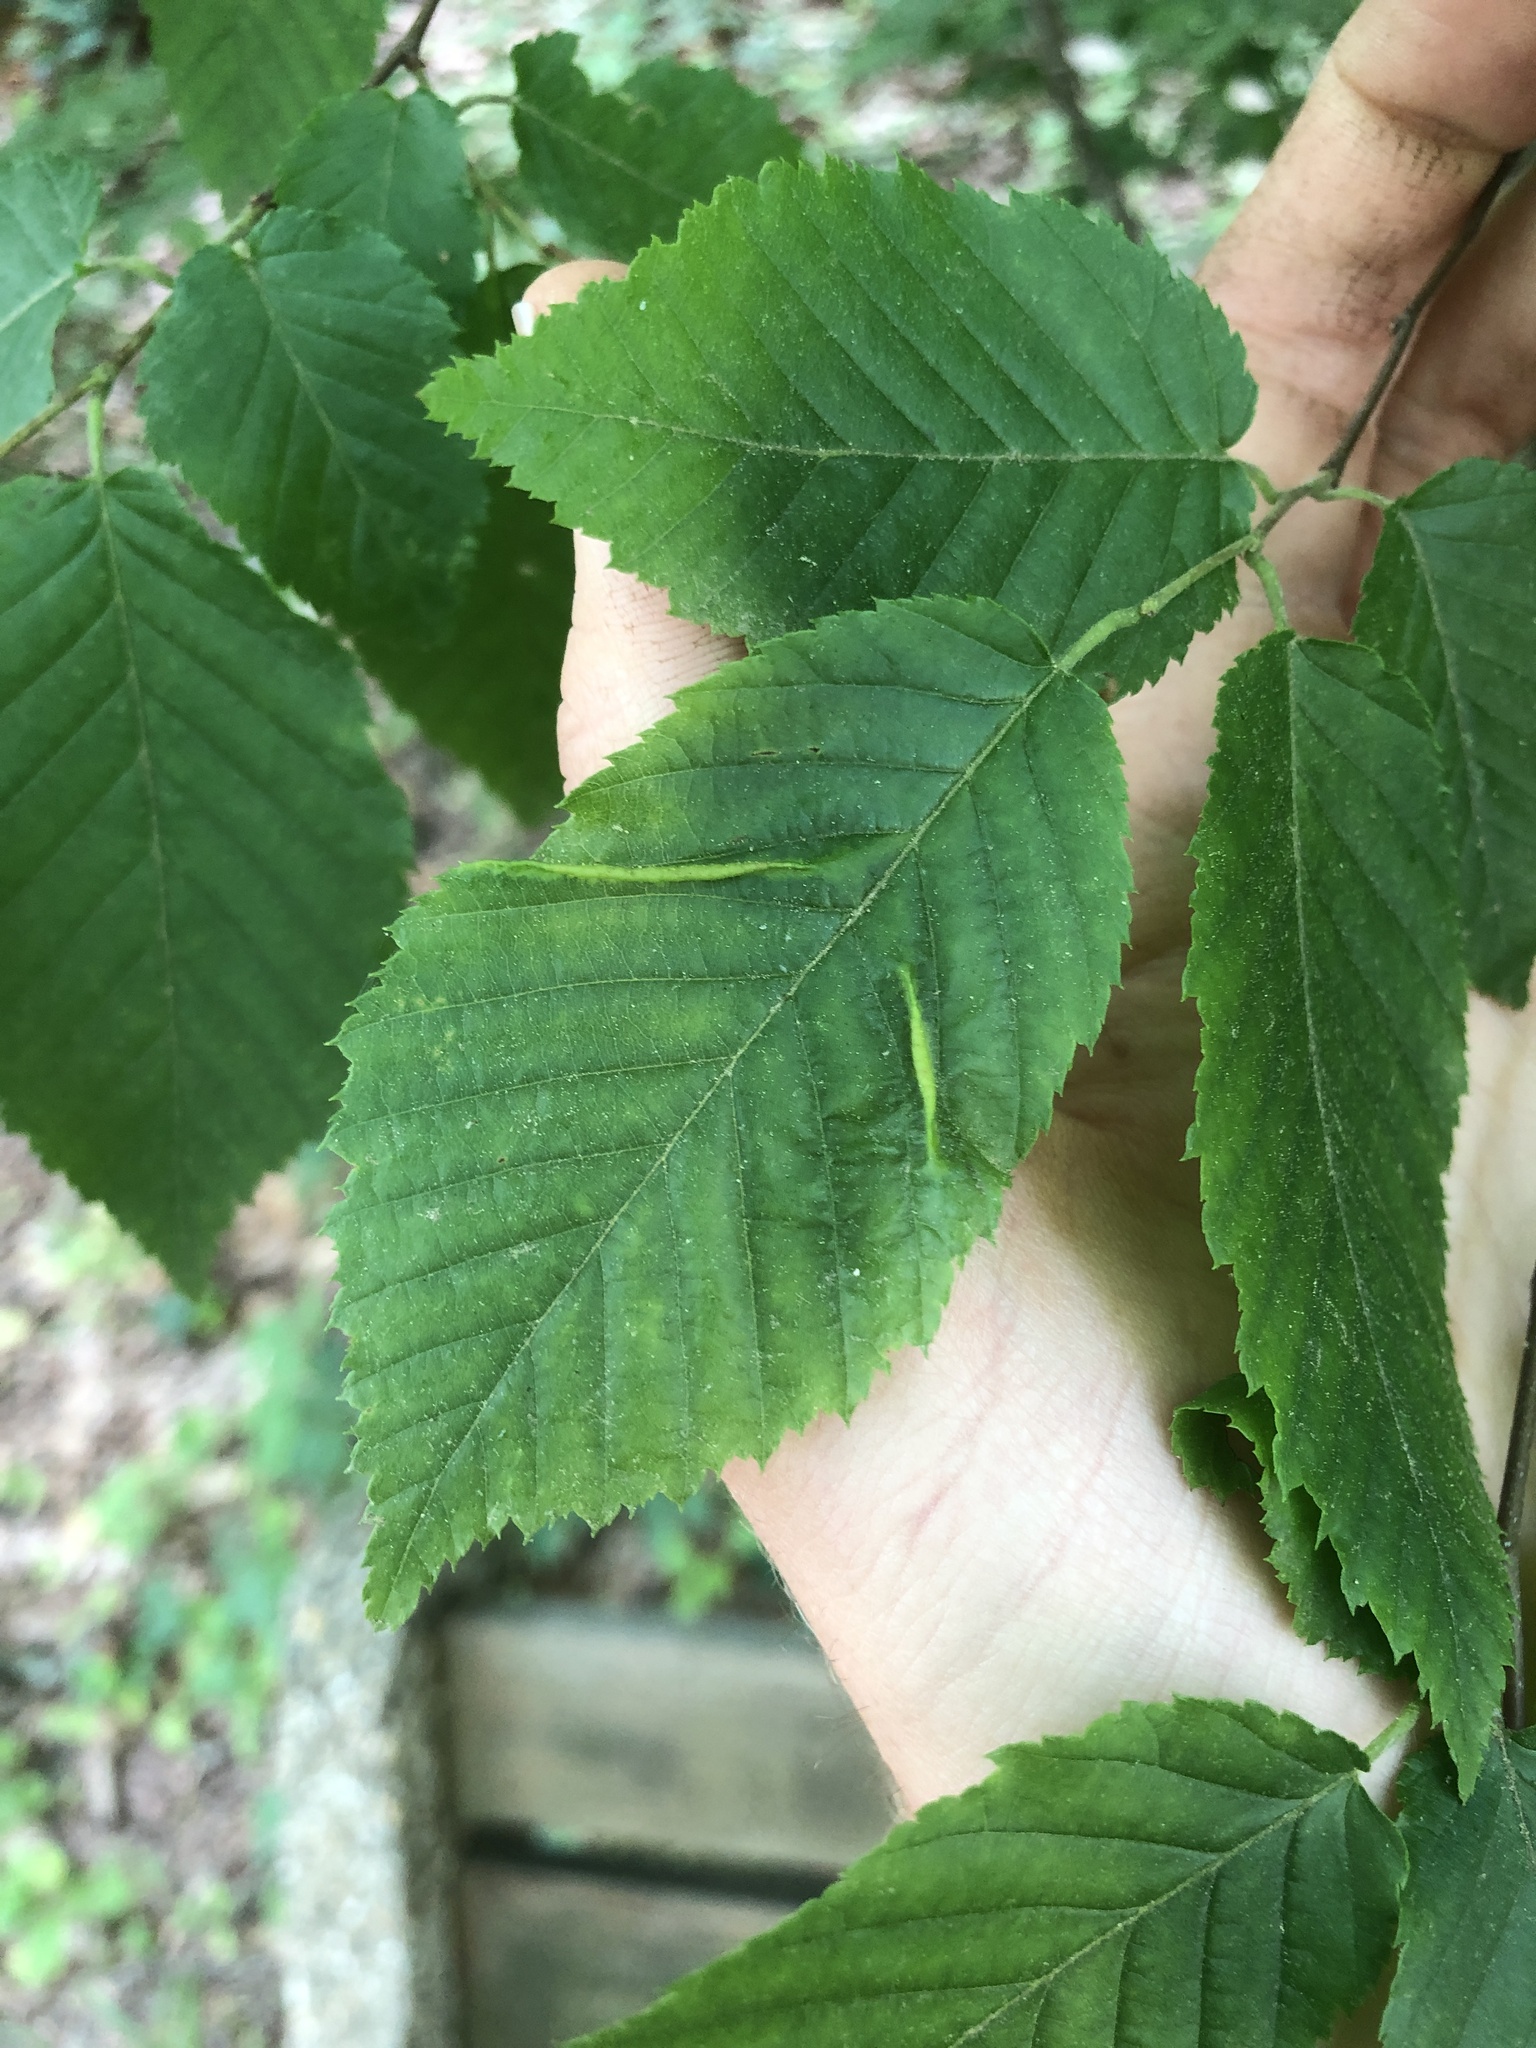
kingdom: Animalia
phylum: Arthropoda
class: Insecta
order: Diptera
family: Cecidomyiidae
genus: Dasineura
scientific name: Dasineura pudibunda
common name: Hornbeam leaf gall midge
